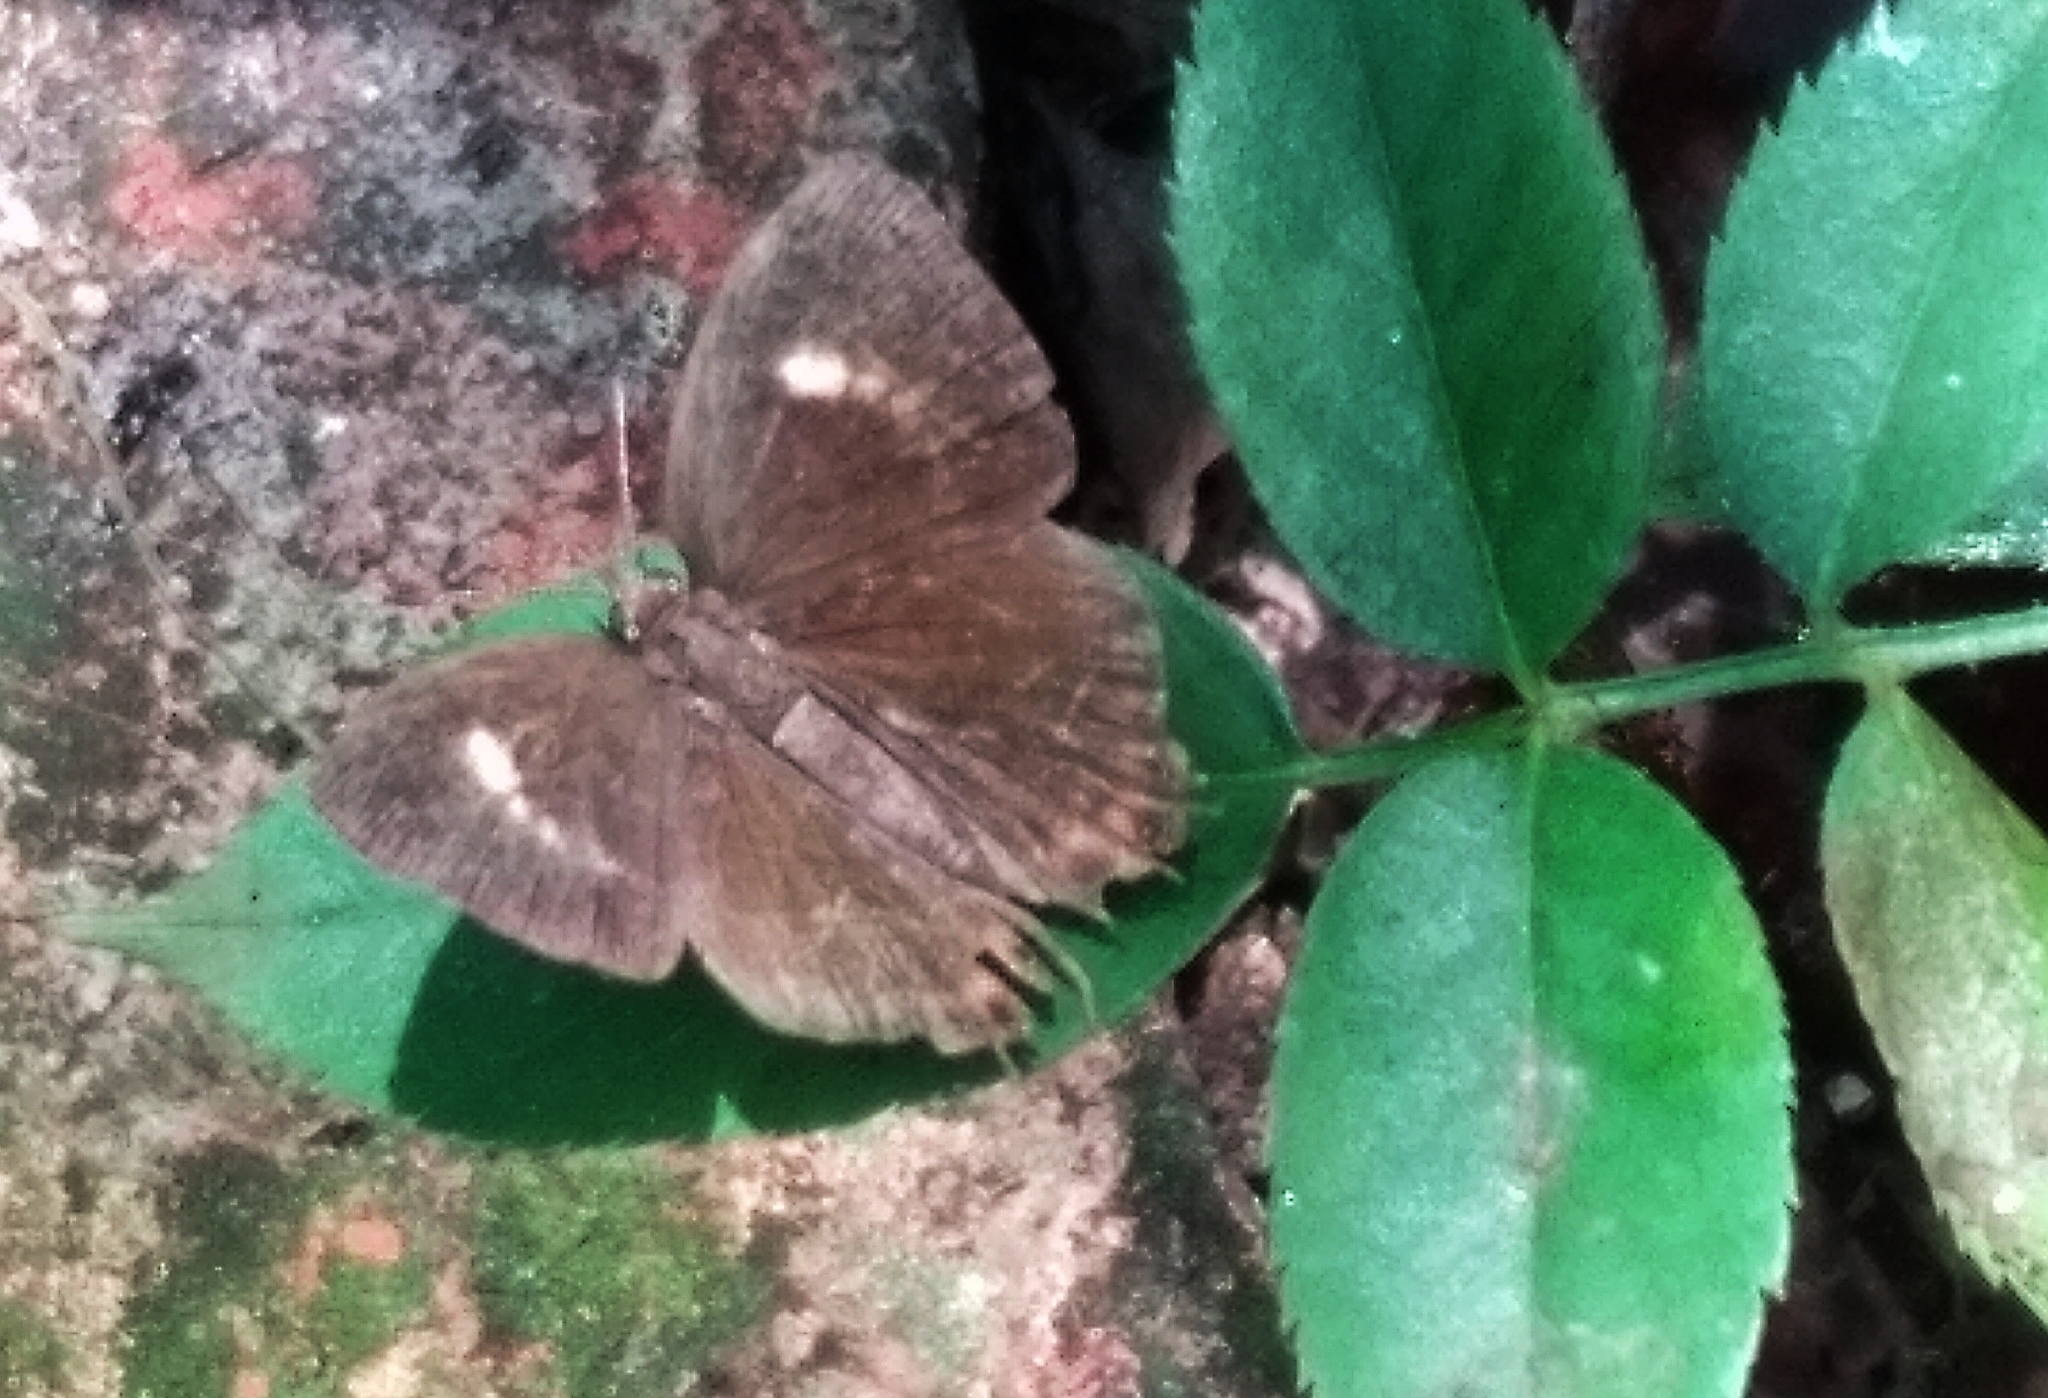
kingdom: Animalia
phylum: Arthropoda
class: Insecta
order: Lepidoptera
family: Lycaenidae
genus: Rathinda
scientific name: Rathinda amor
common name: Monkey puzzle
